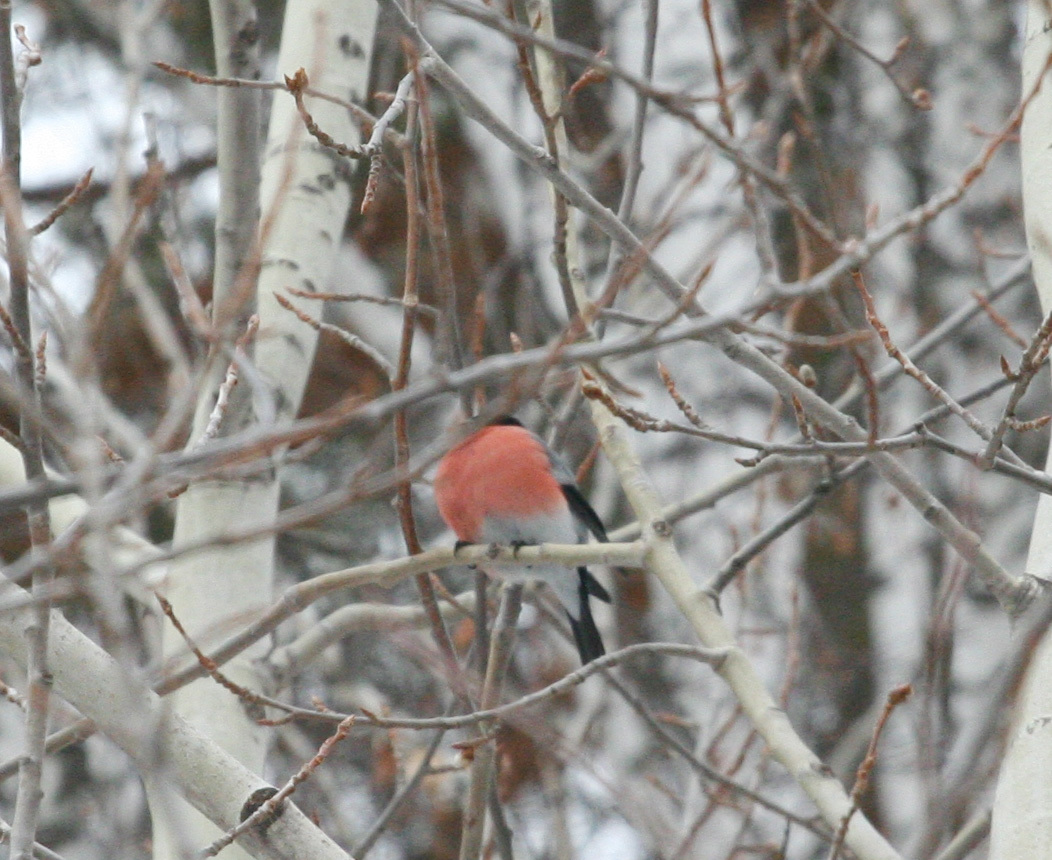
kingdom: Animalia
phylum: Chordata
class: Aves
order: Passeriformes
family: Fringillidae
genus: Pyrrhula
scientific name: Pyrrhula pyrrhula
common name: Eurasian bullfinch
